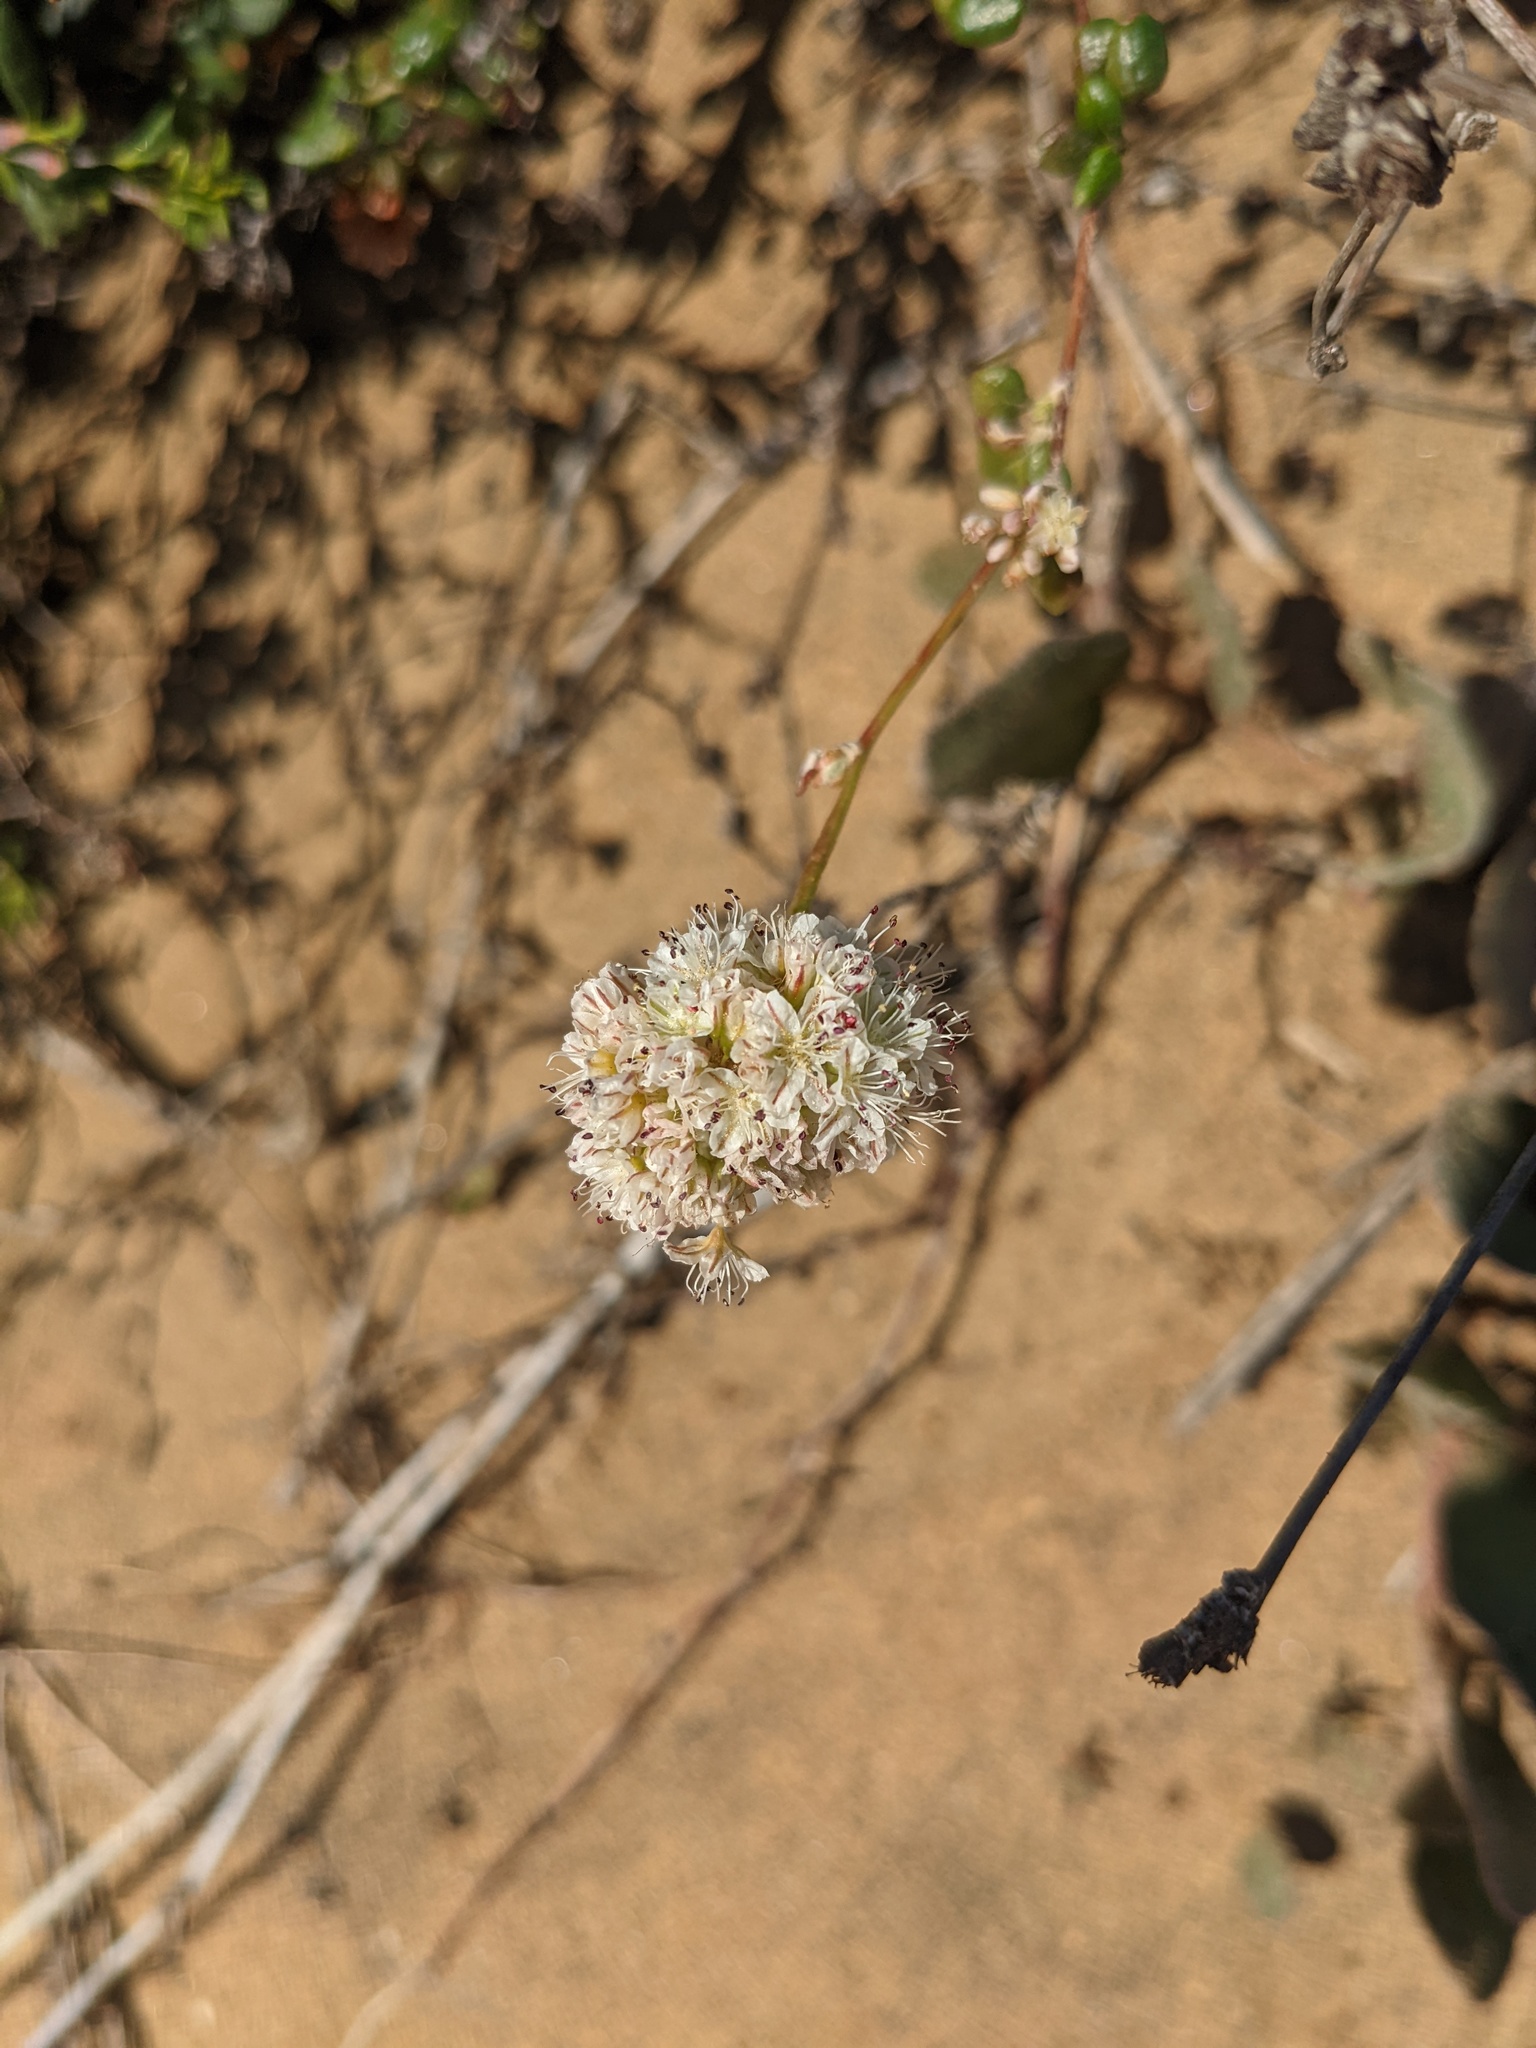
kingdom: Plantae
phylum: Tracheophyta
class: Magnoliopsida
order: Caryophyllales
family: Polygonaceae
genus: Eriogonum
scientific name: Eriogonum parvifolium
